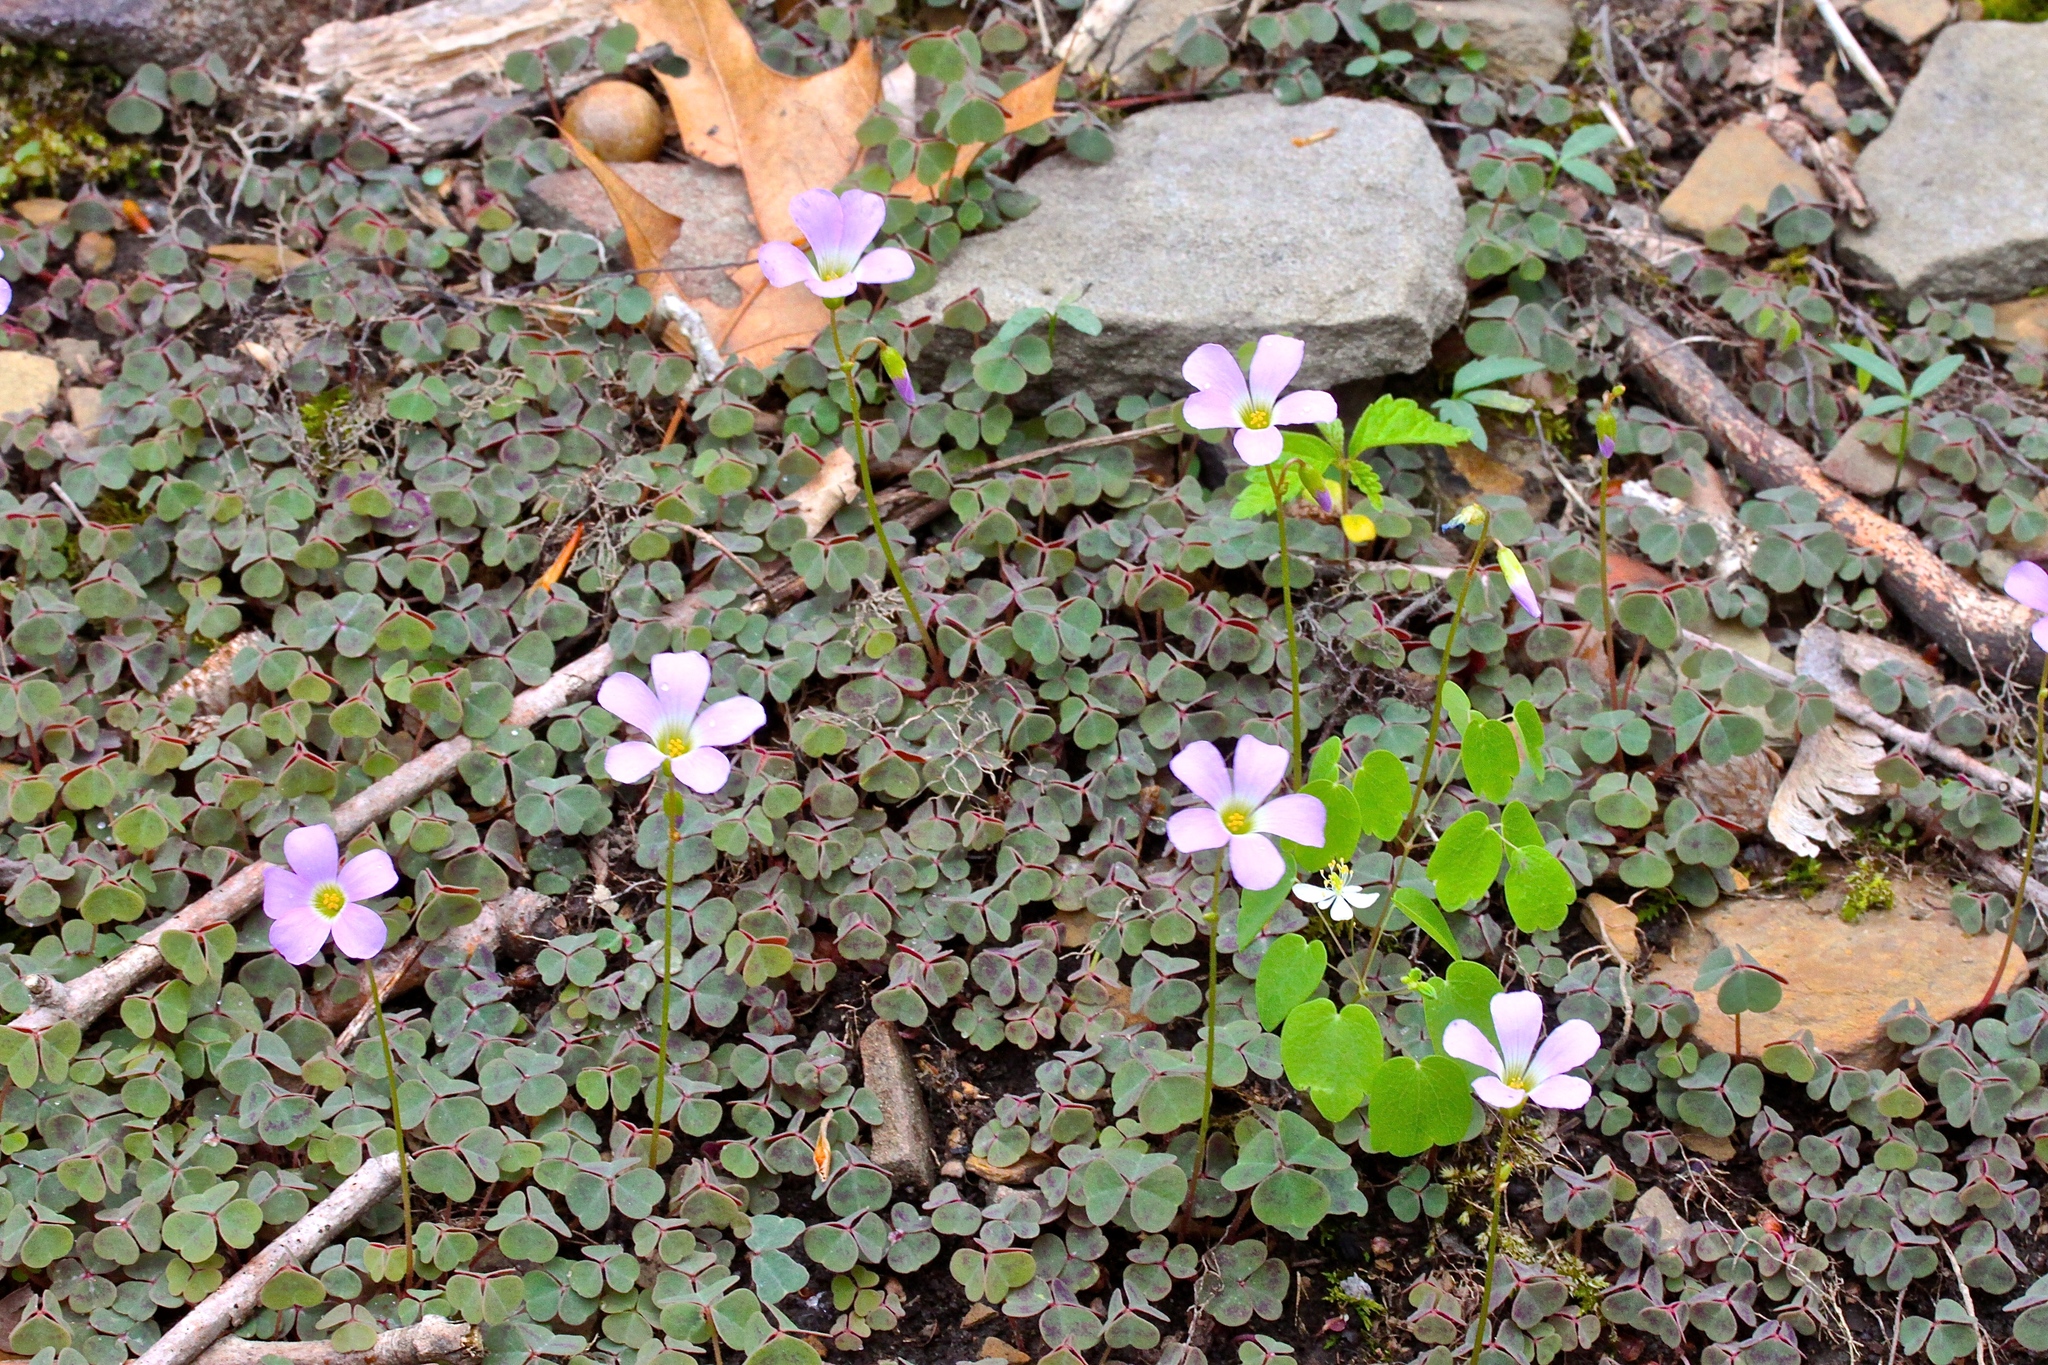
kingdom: Plantae
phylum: Tracheophyta
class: Magnoliopsida
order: Oxalidales
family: Oxalidaceae
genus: Oxalis
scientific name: Oxalis violacea
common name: Violet wood-sorrel
